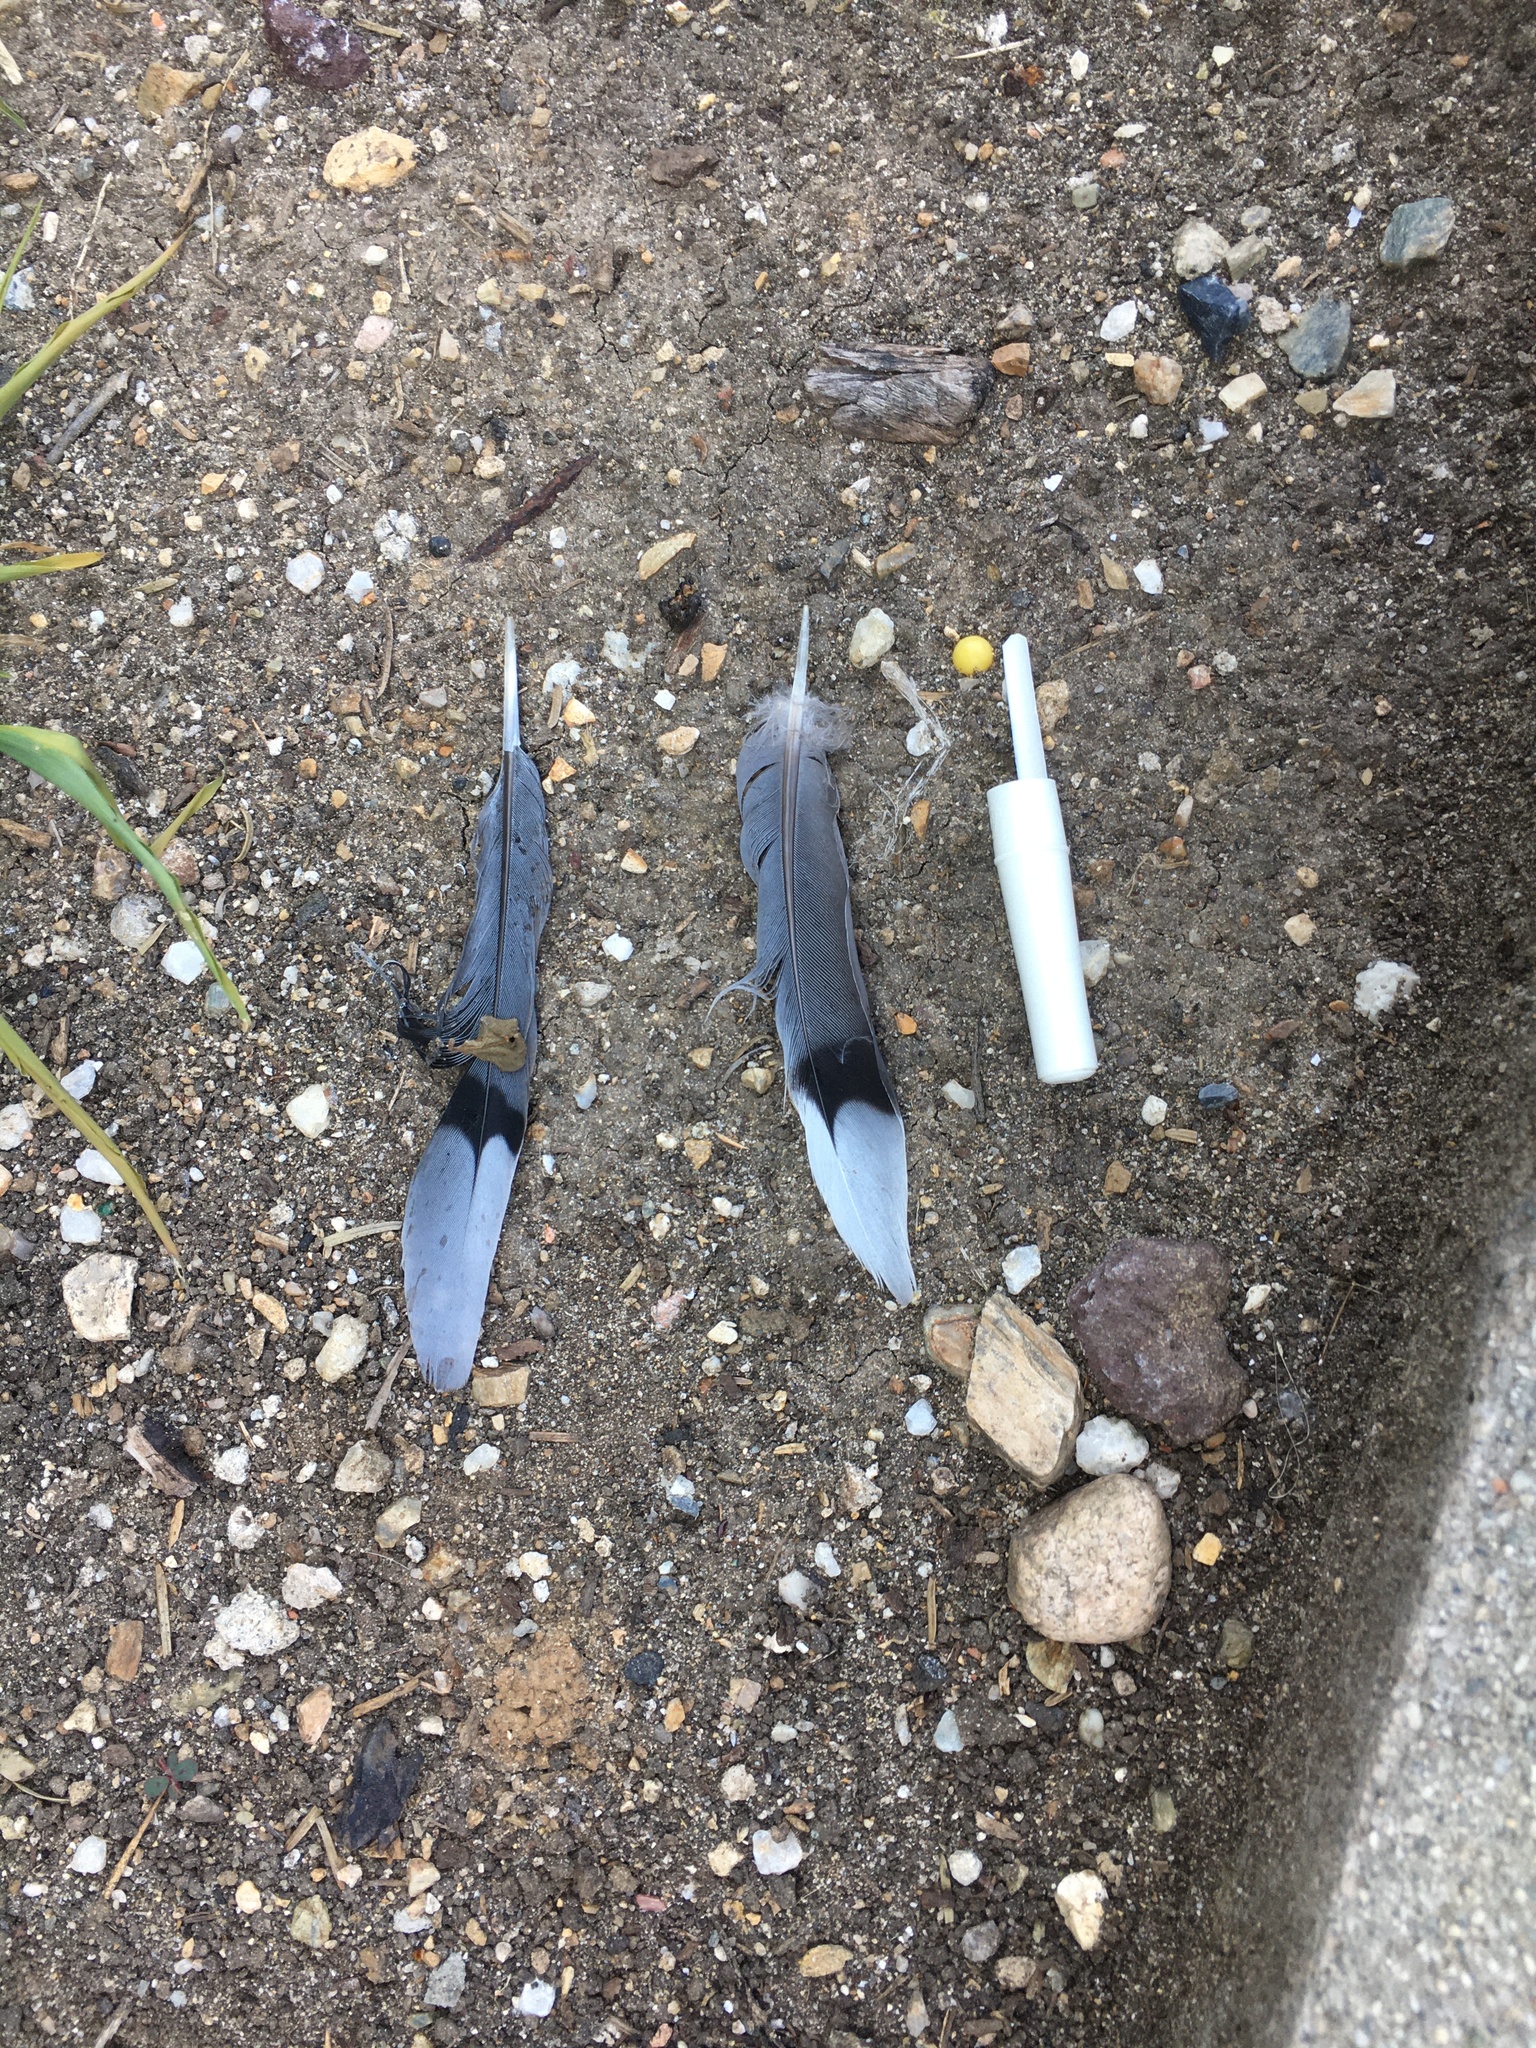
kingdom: Animalia
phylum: Chordata
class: Aves
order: Columbiformes
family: Columbidae
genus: Zenaida
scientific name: Zenaida macroura
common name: Mourning dove
